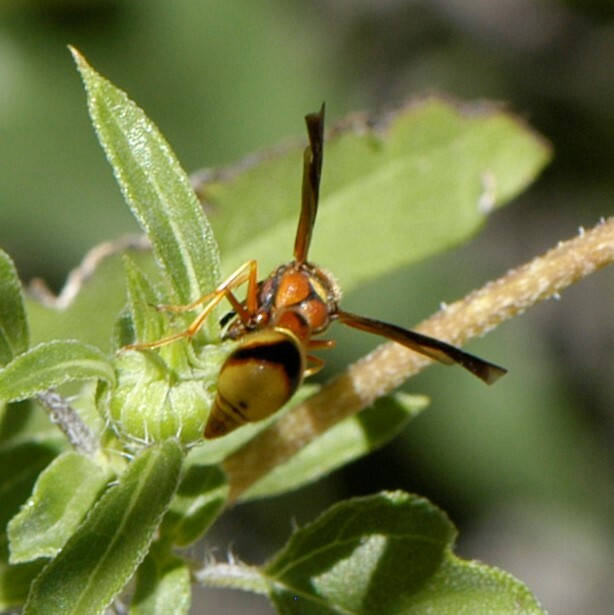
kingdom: Animalia
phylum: Arthropoda
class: Insecta
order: Hymenoptera
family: Vespidae
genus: Eumenes
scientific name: Eumenes bollii
